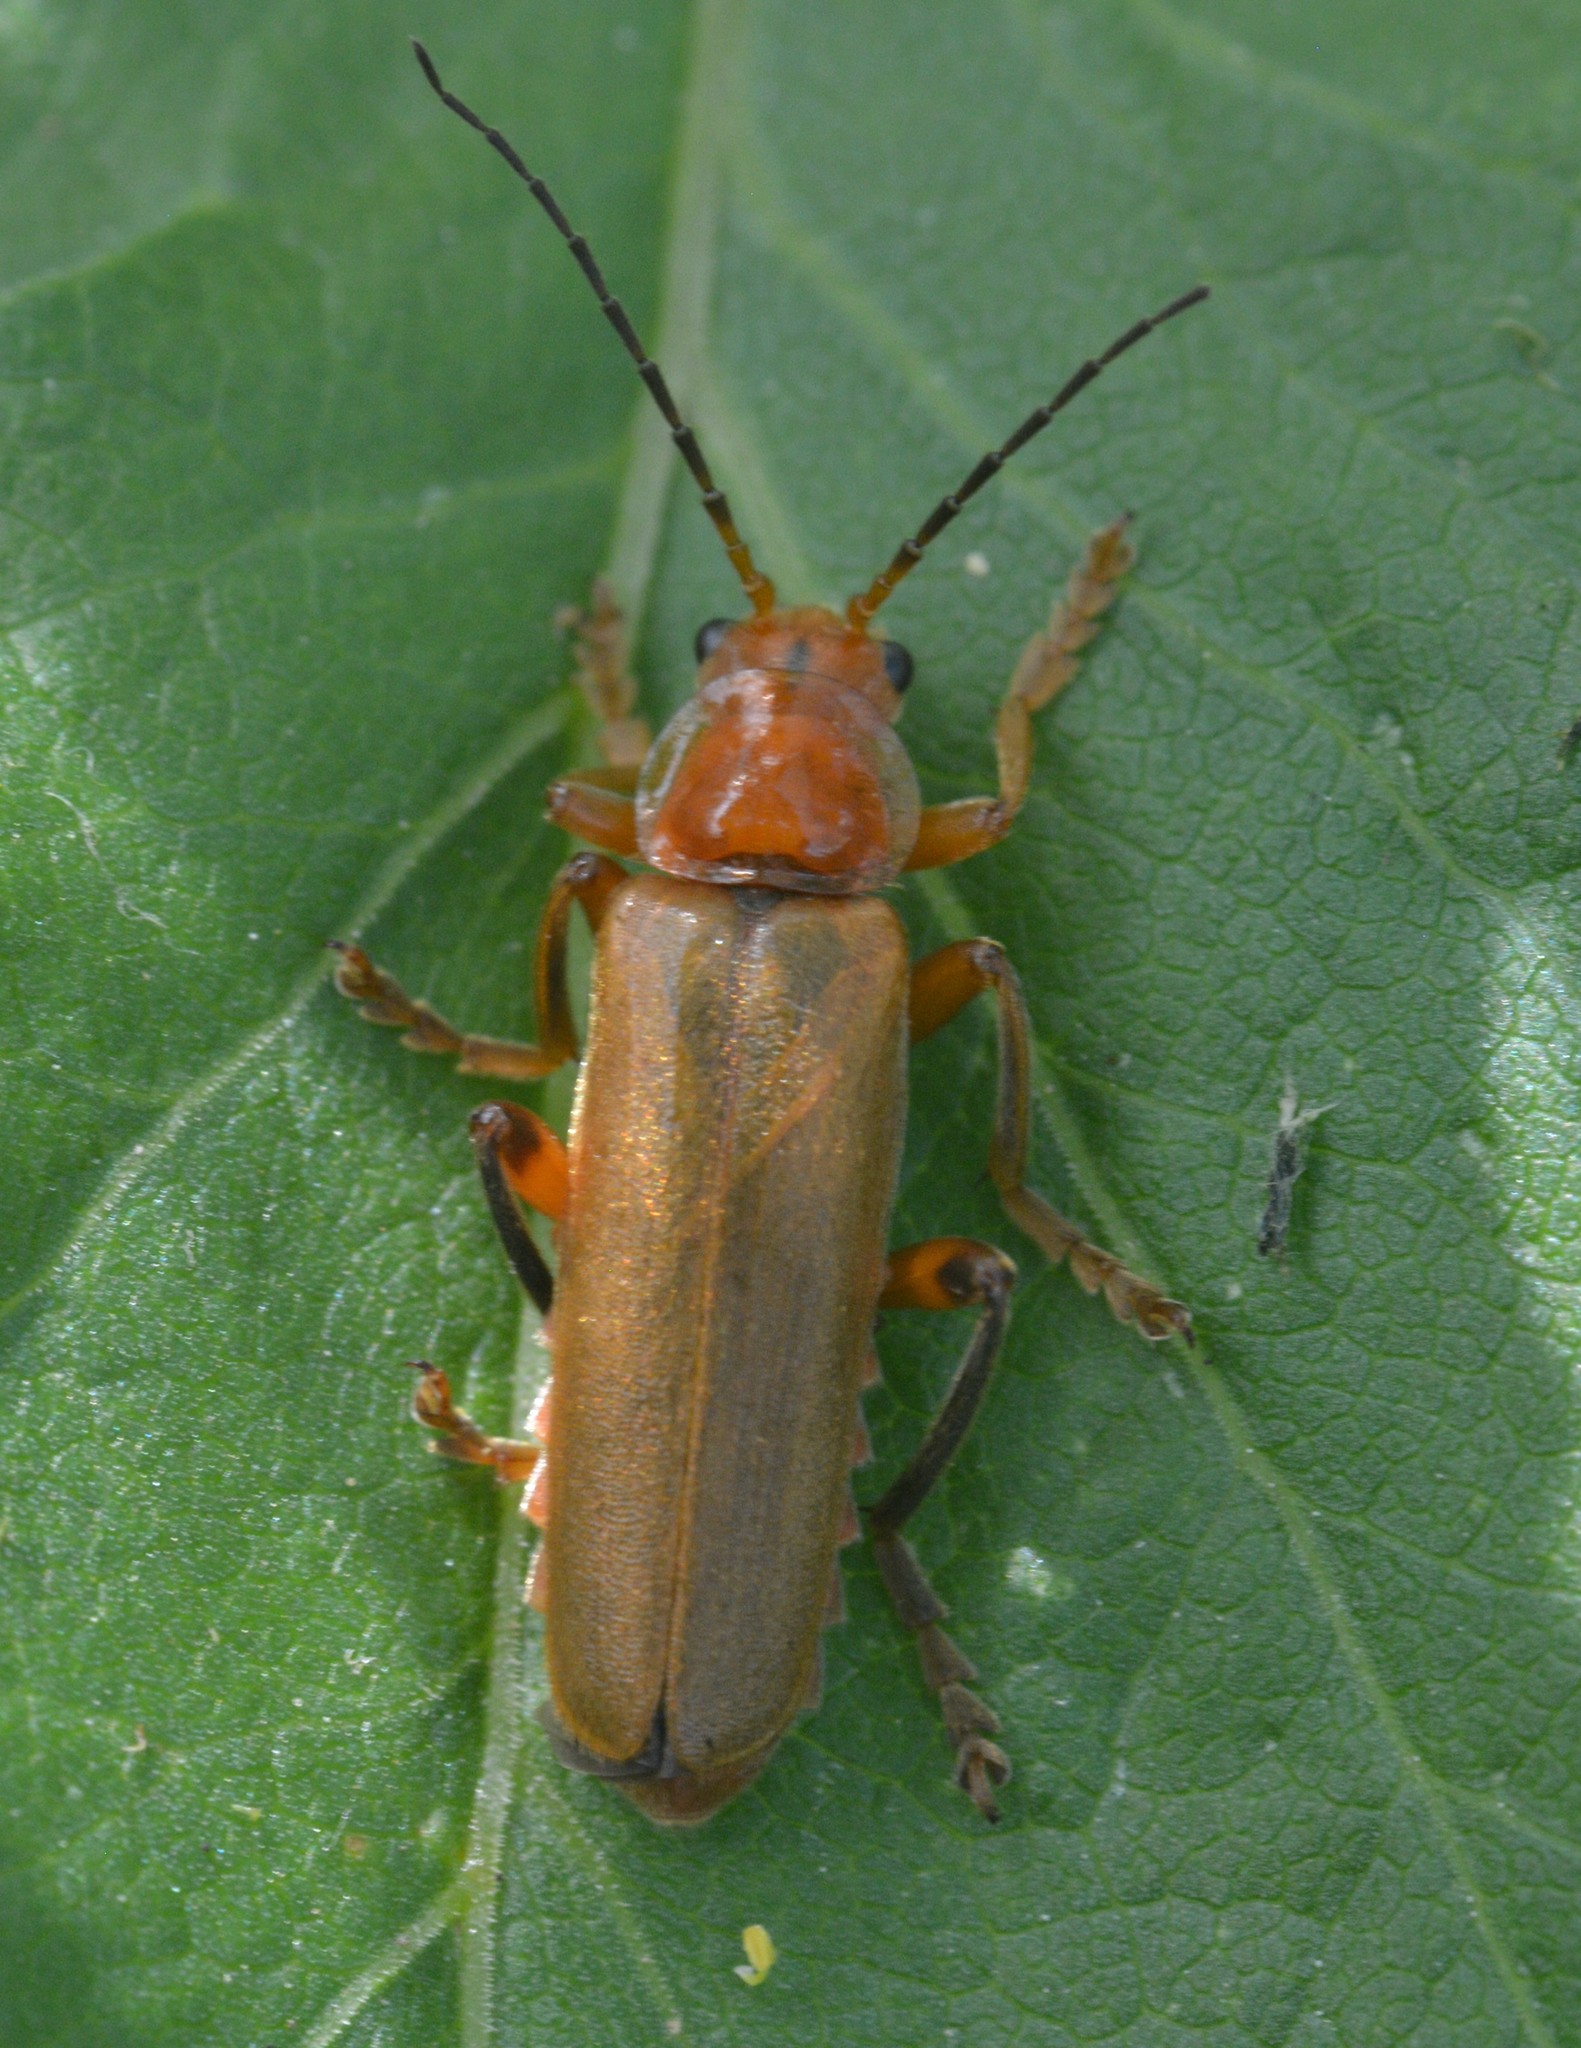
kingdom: Animalia
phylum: Arthropoda
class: Insecta
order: Coleoptera
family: Cantharidae
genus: Cantharis
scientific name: Cantharis livida
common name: Livid soldier beetle
